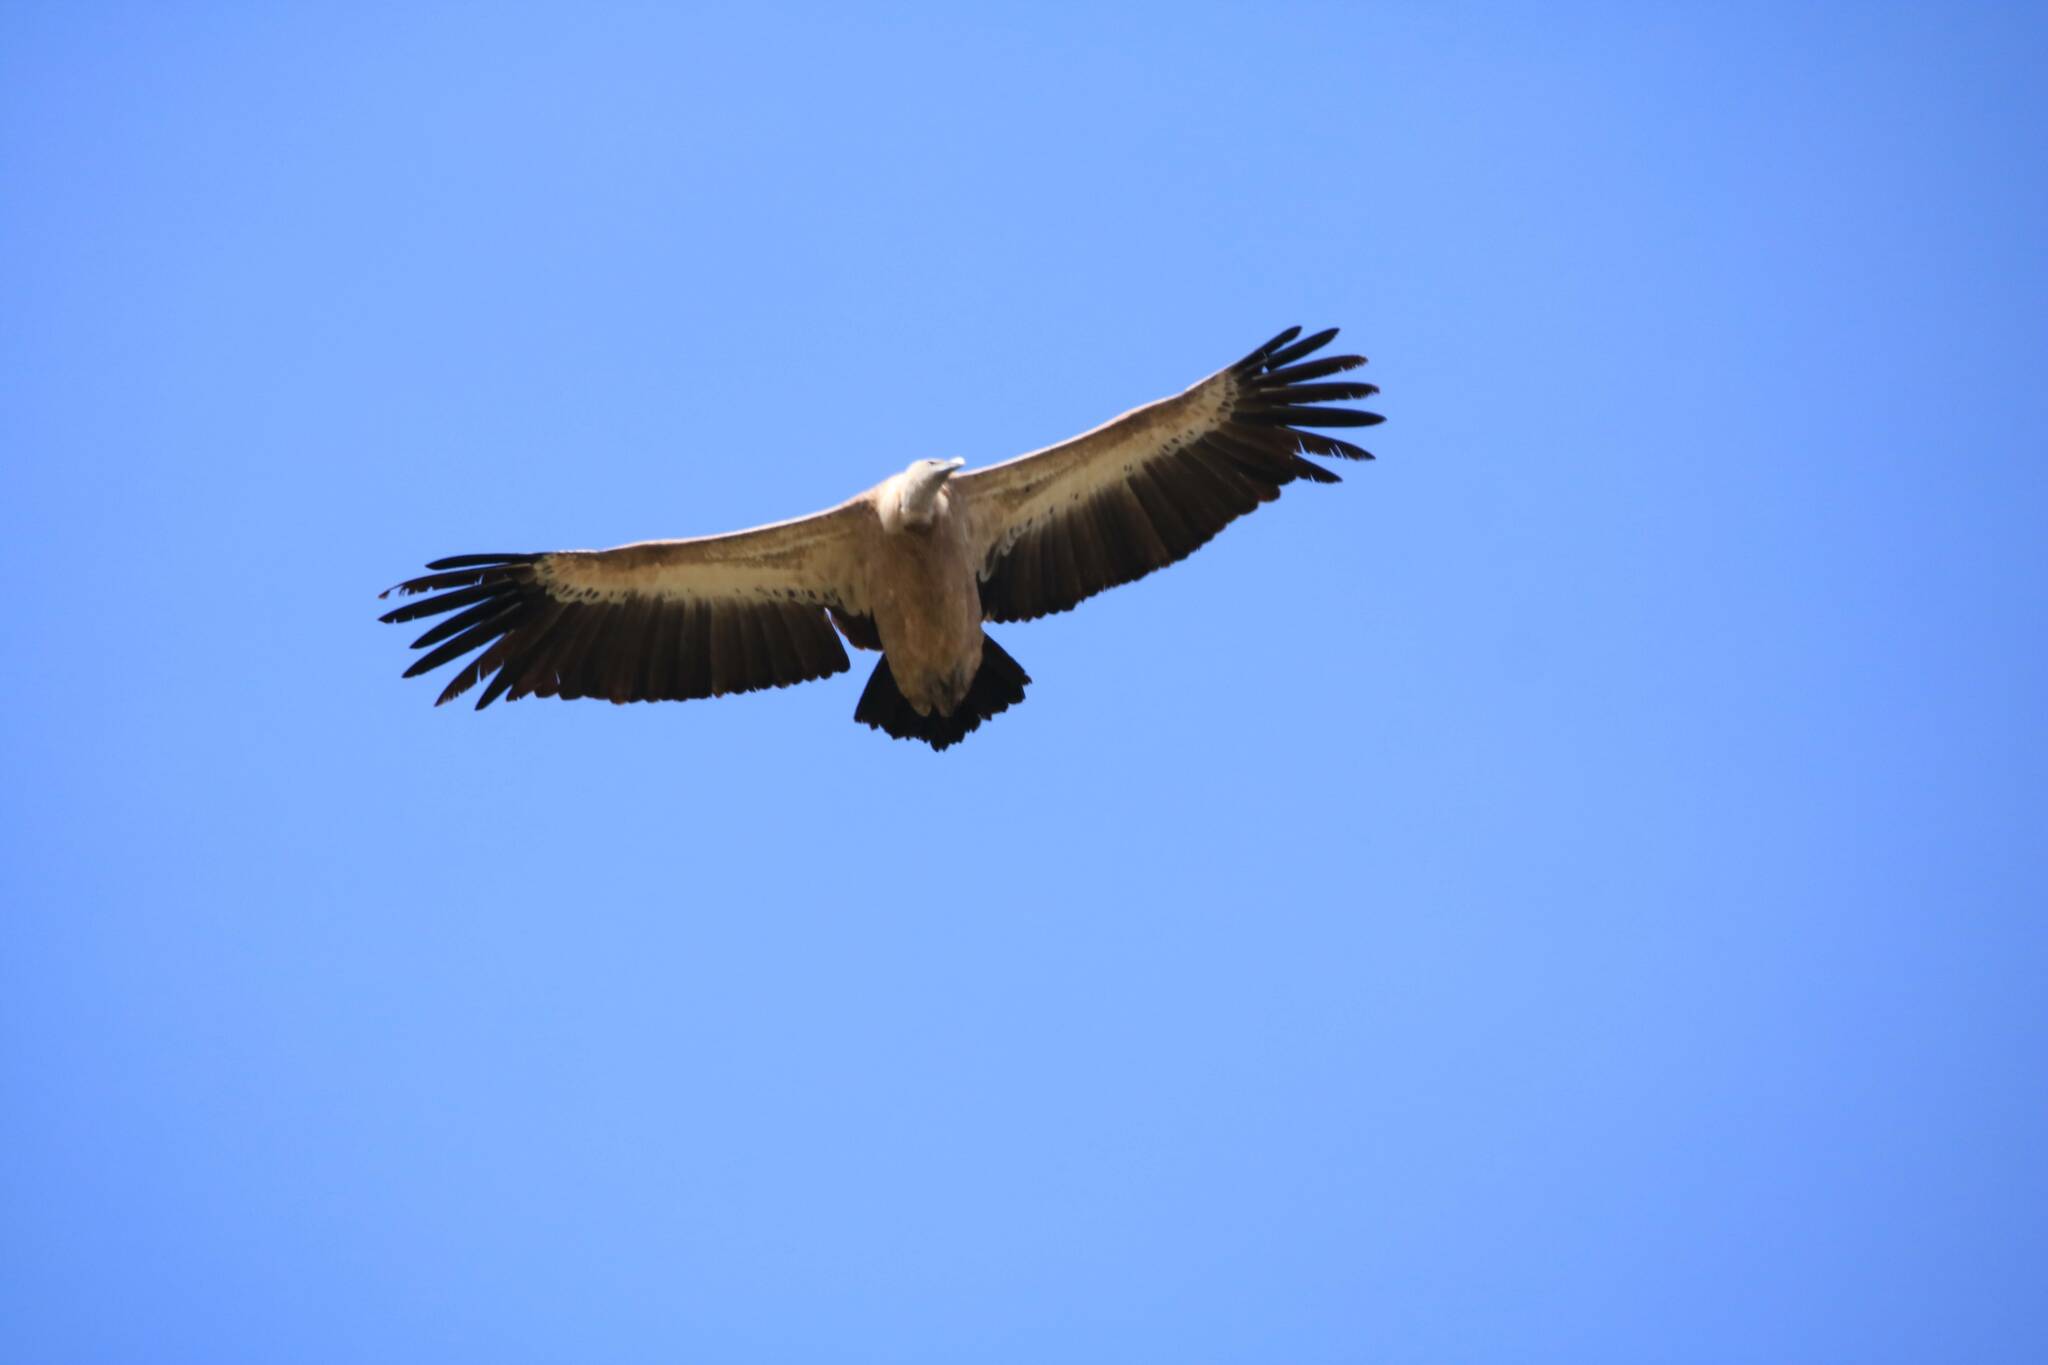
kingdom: Animalia
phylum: Chordata
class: Aves
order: Accipitriformes
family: Accipitridae
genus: Gyps
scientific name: Gyps fulvus
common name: Griffon vulture
